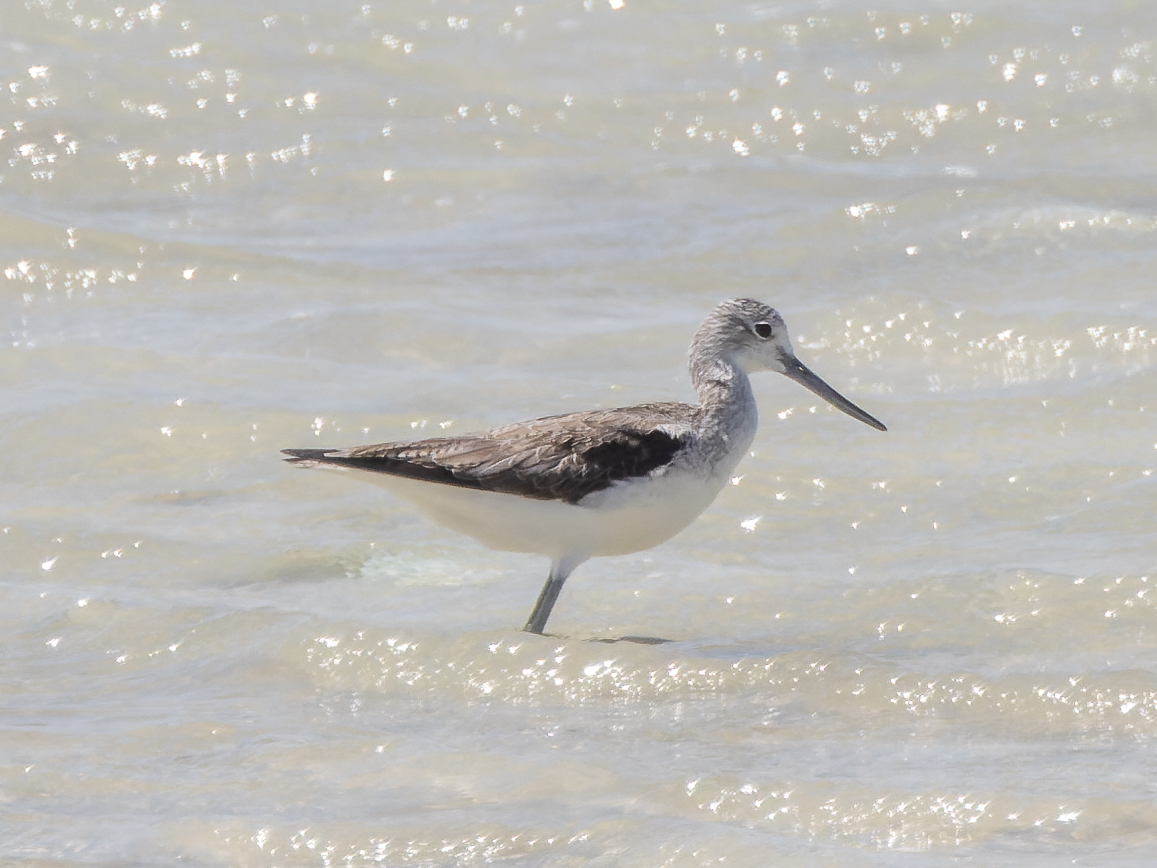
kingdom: Animalia
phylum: Chordata
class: Aves
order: Charadriiformes
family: Scolopacidae
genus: Tringa
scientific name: Tringa nebularia
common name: Common greenshank
